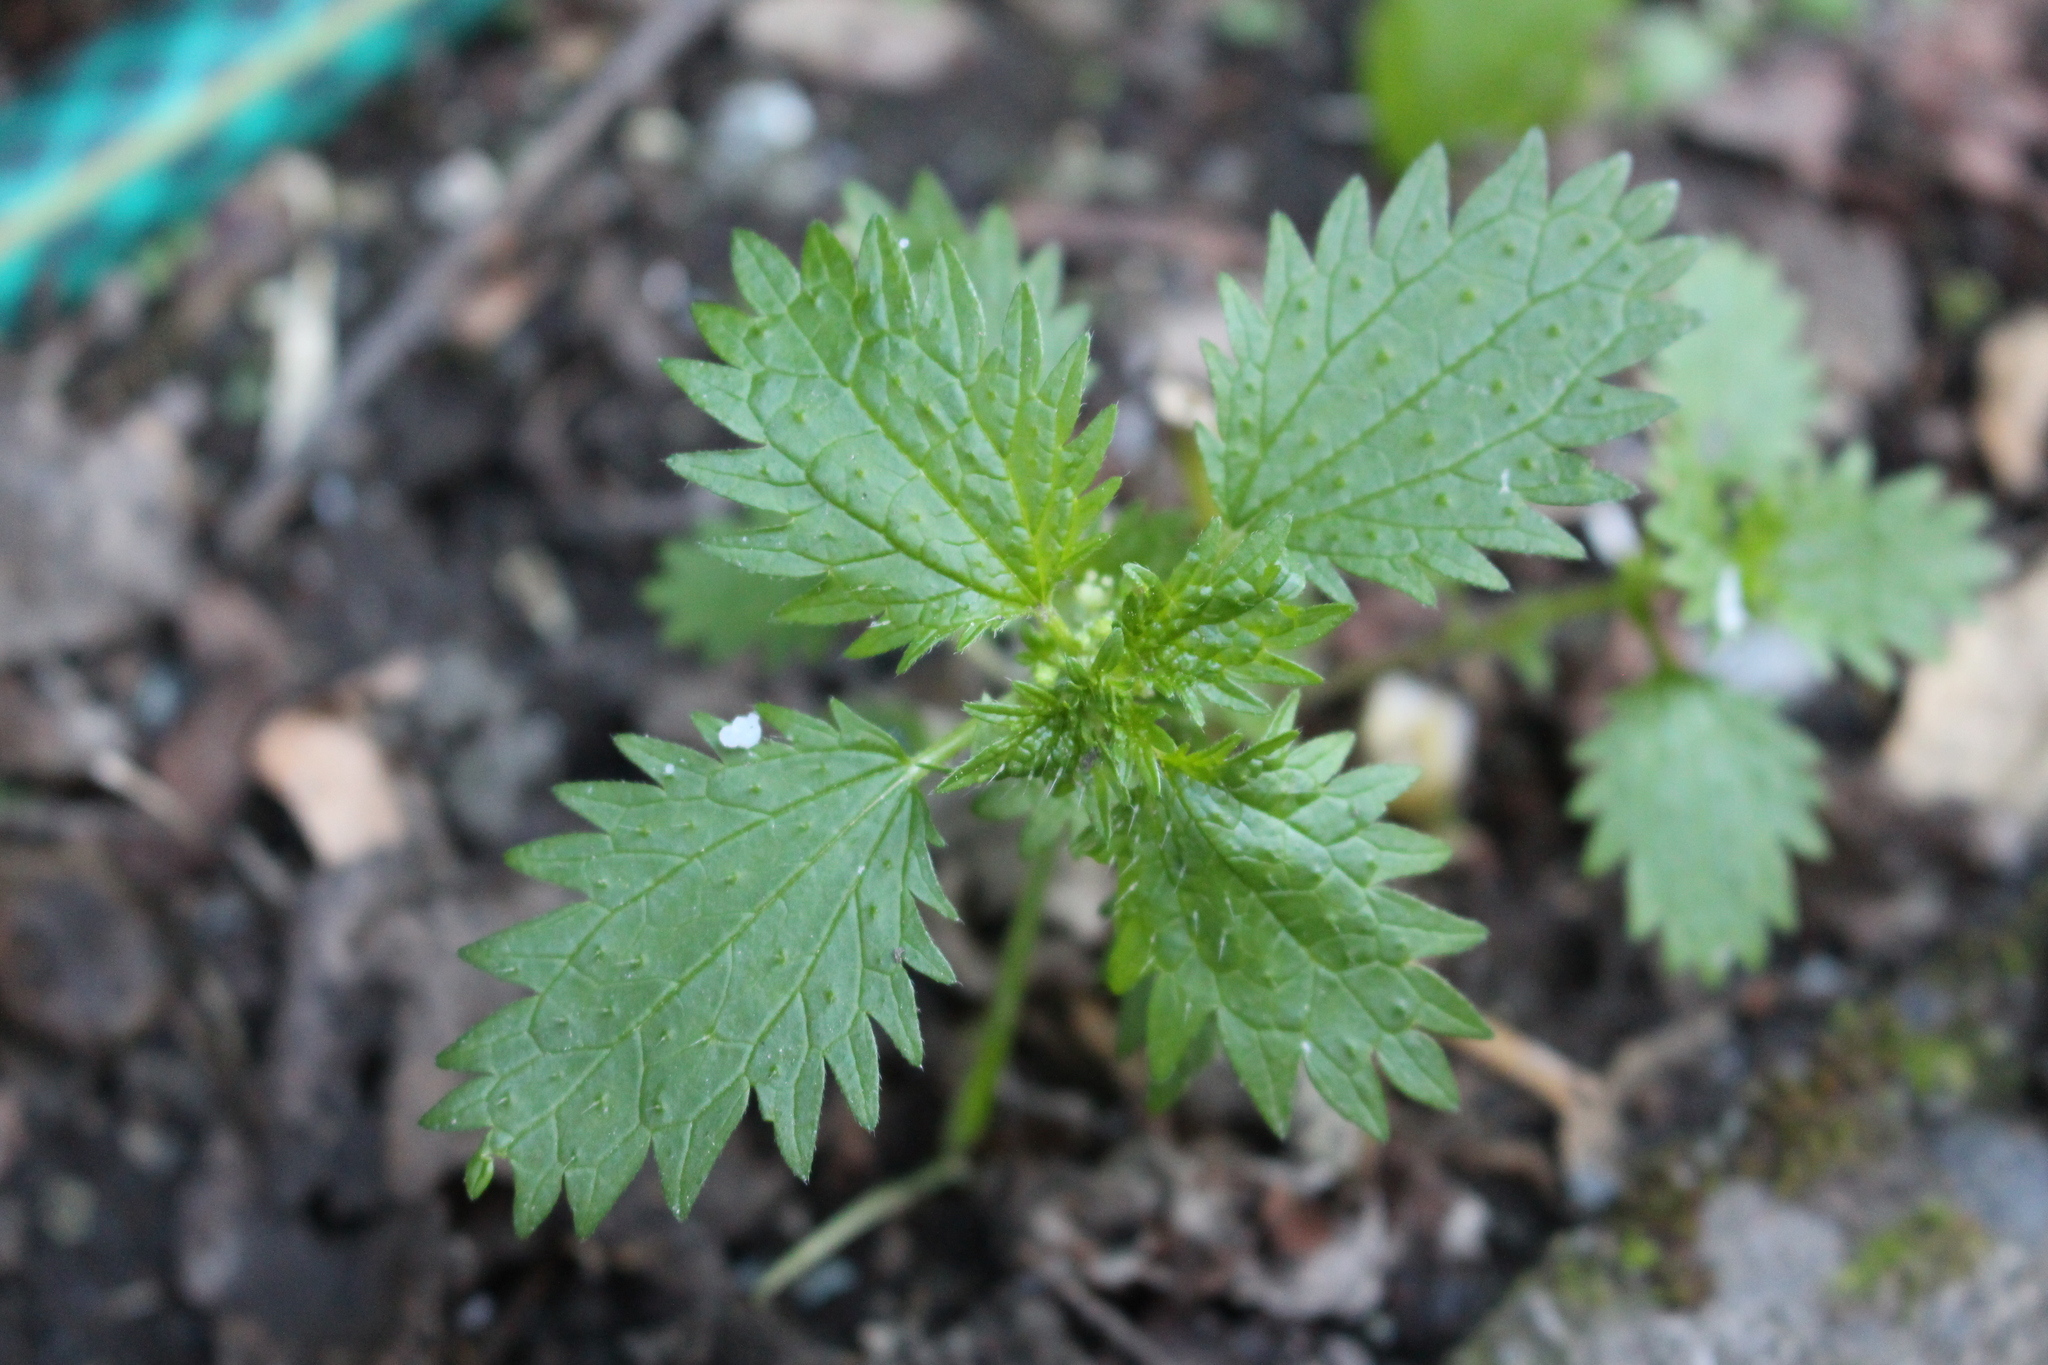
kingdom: Plantae
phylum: Tracheophyta
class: Magnoliopsida
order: Rosales
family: Urticaceae
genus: Urtica
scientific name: Urtica urens
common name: Dwarf nettle
